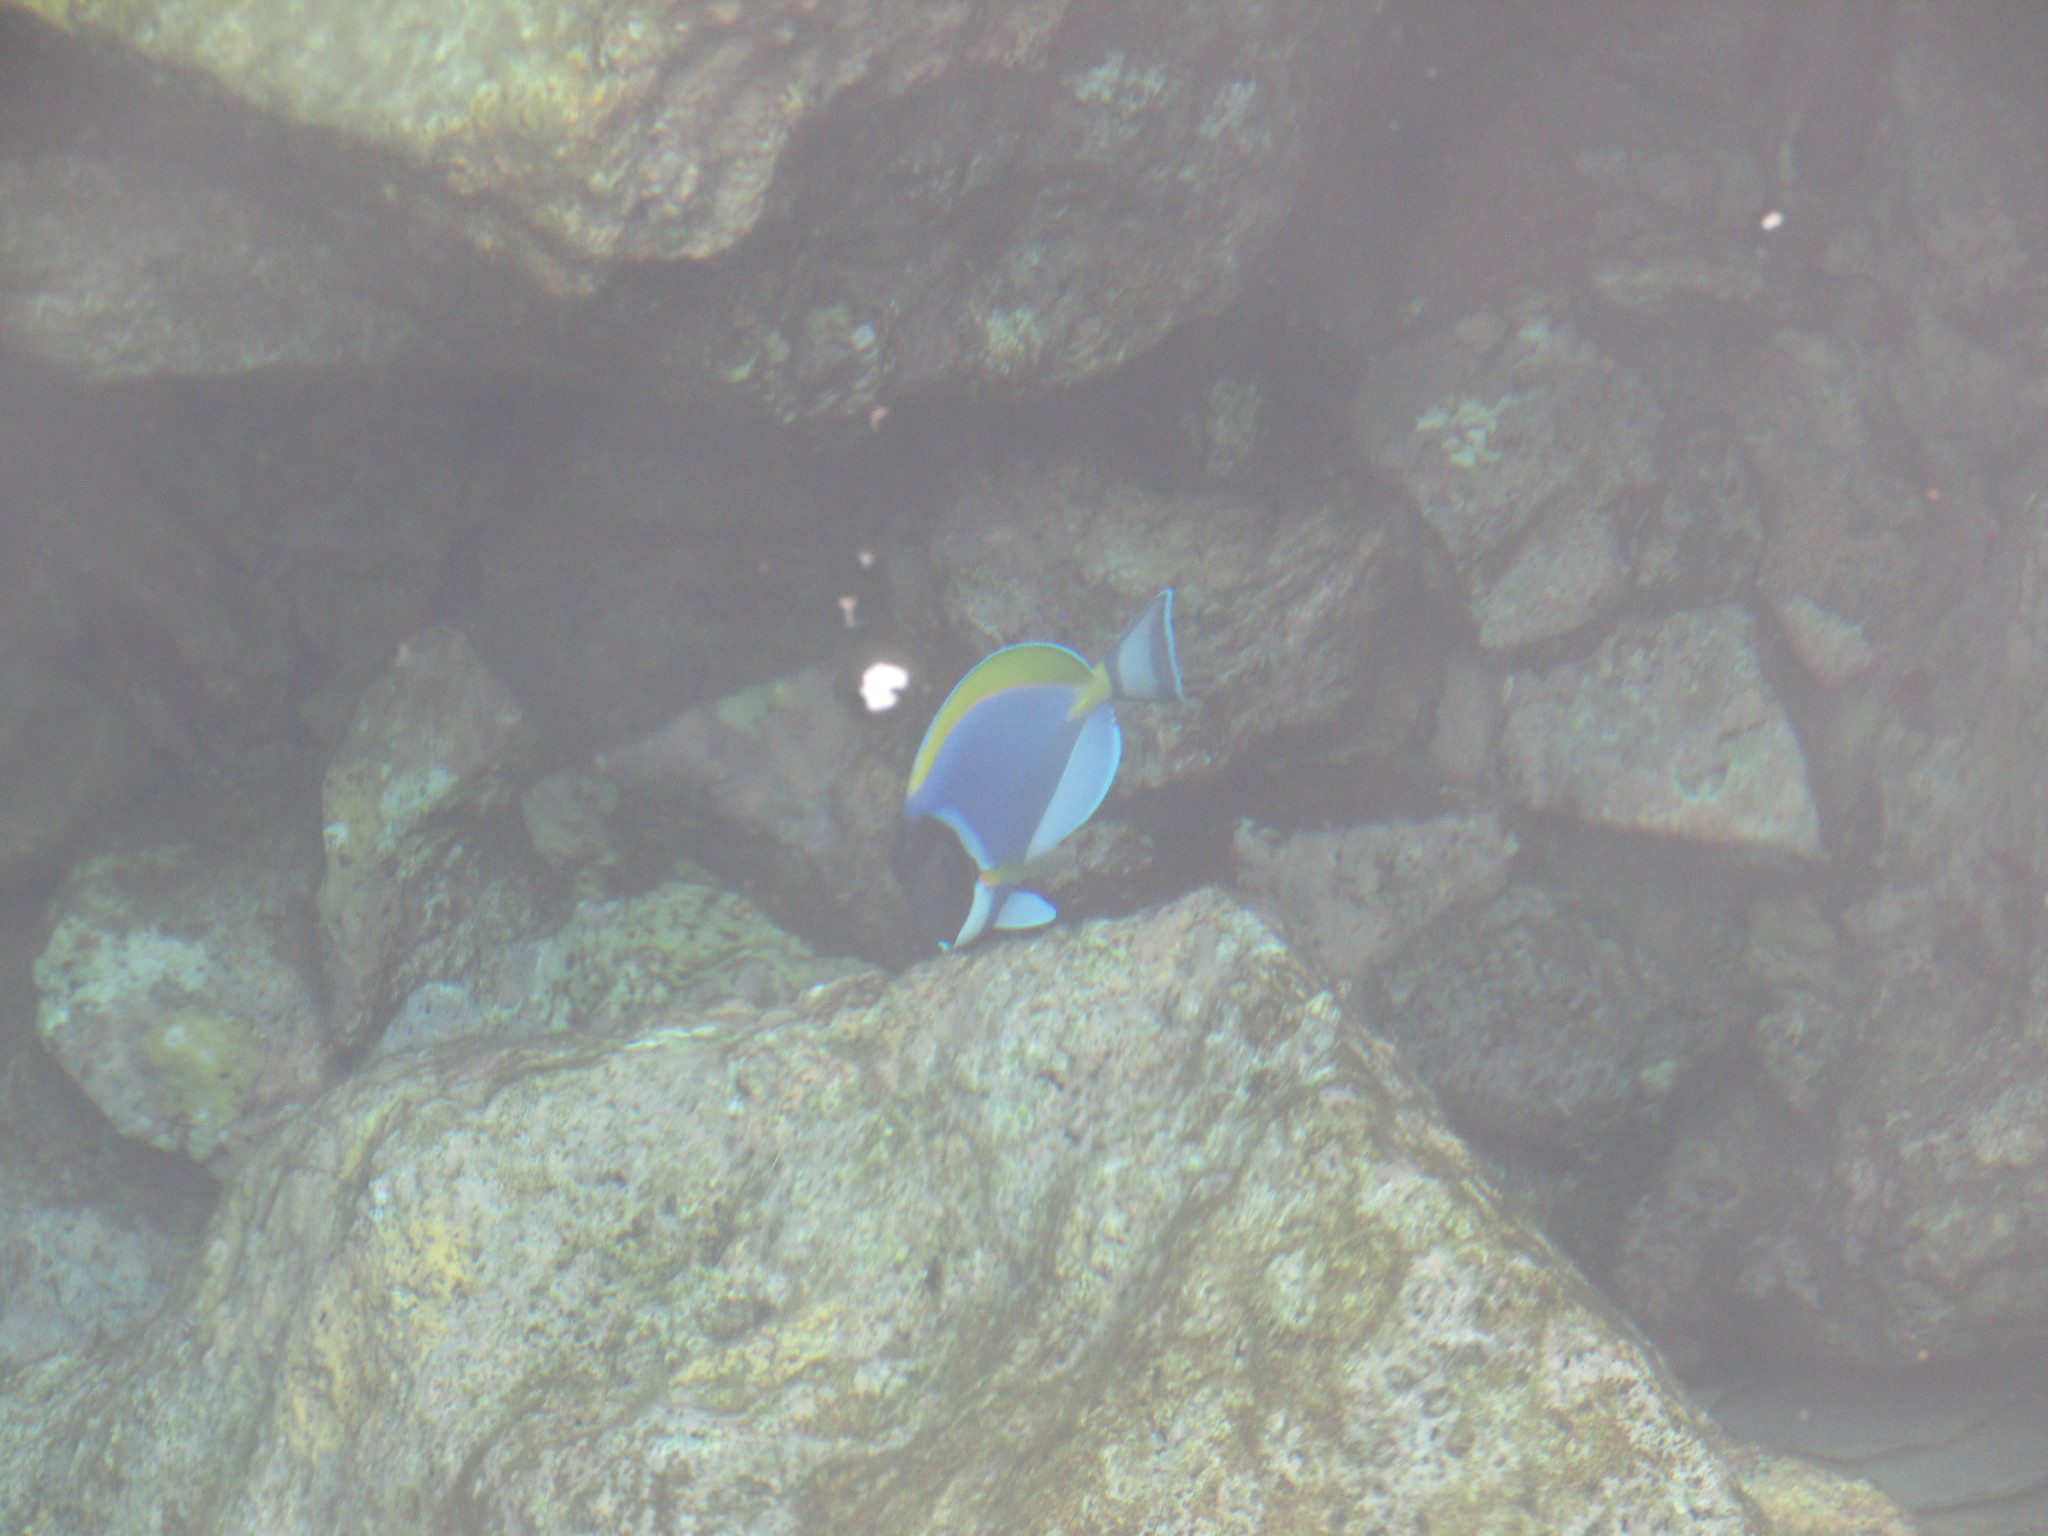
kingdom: Animalia
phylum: Chordata
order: Perciformes
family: Acanthuridae
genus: Acanthurus
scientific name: Acanthurus leucosternon
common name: Blue surgeonfish
